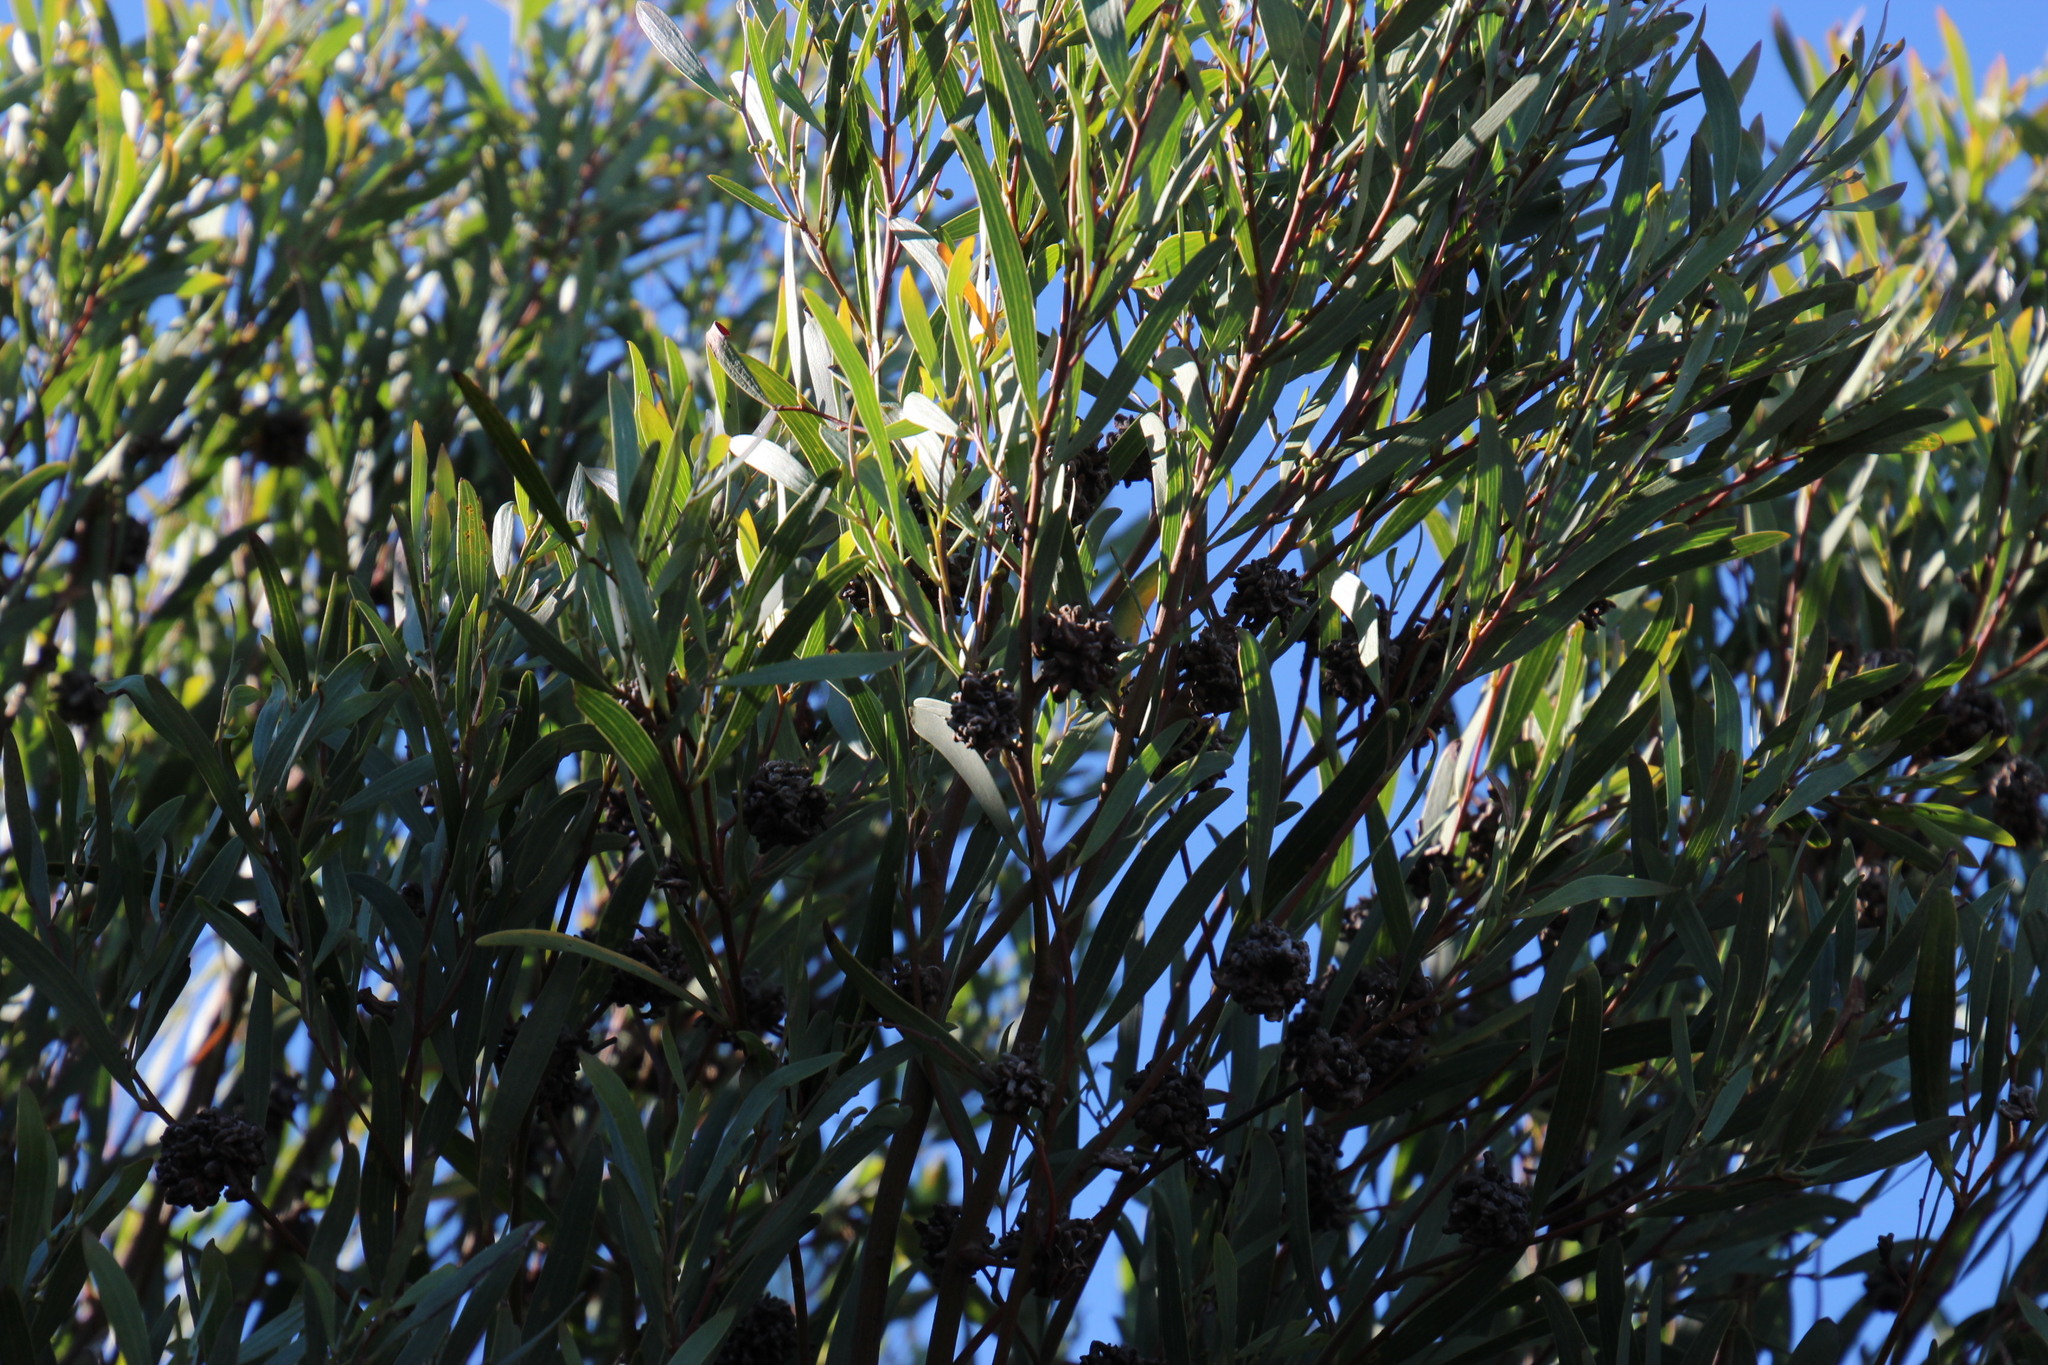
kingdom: Plantae
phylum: Tracheophyta
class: Magnoliopsida
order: Fabales
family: Fabaceae
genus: Acacia
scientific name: Acacia cyclops
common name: Coastal wattle
